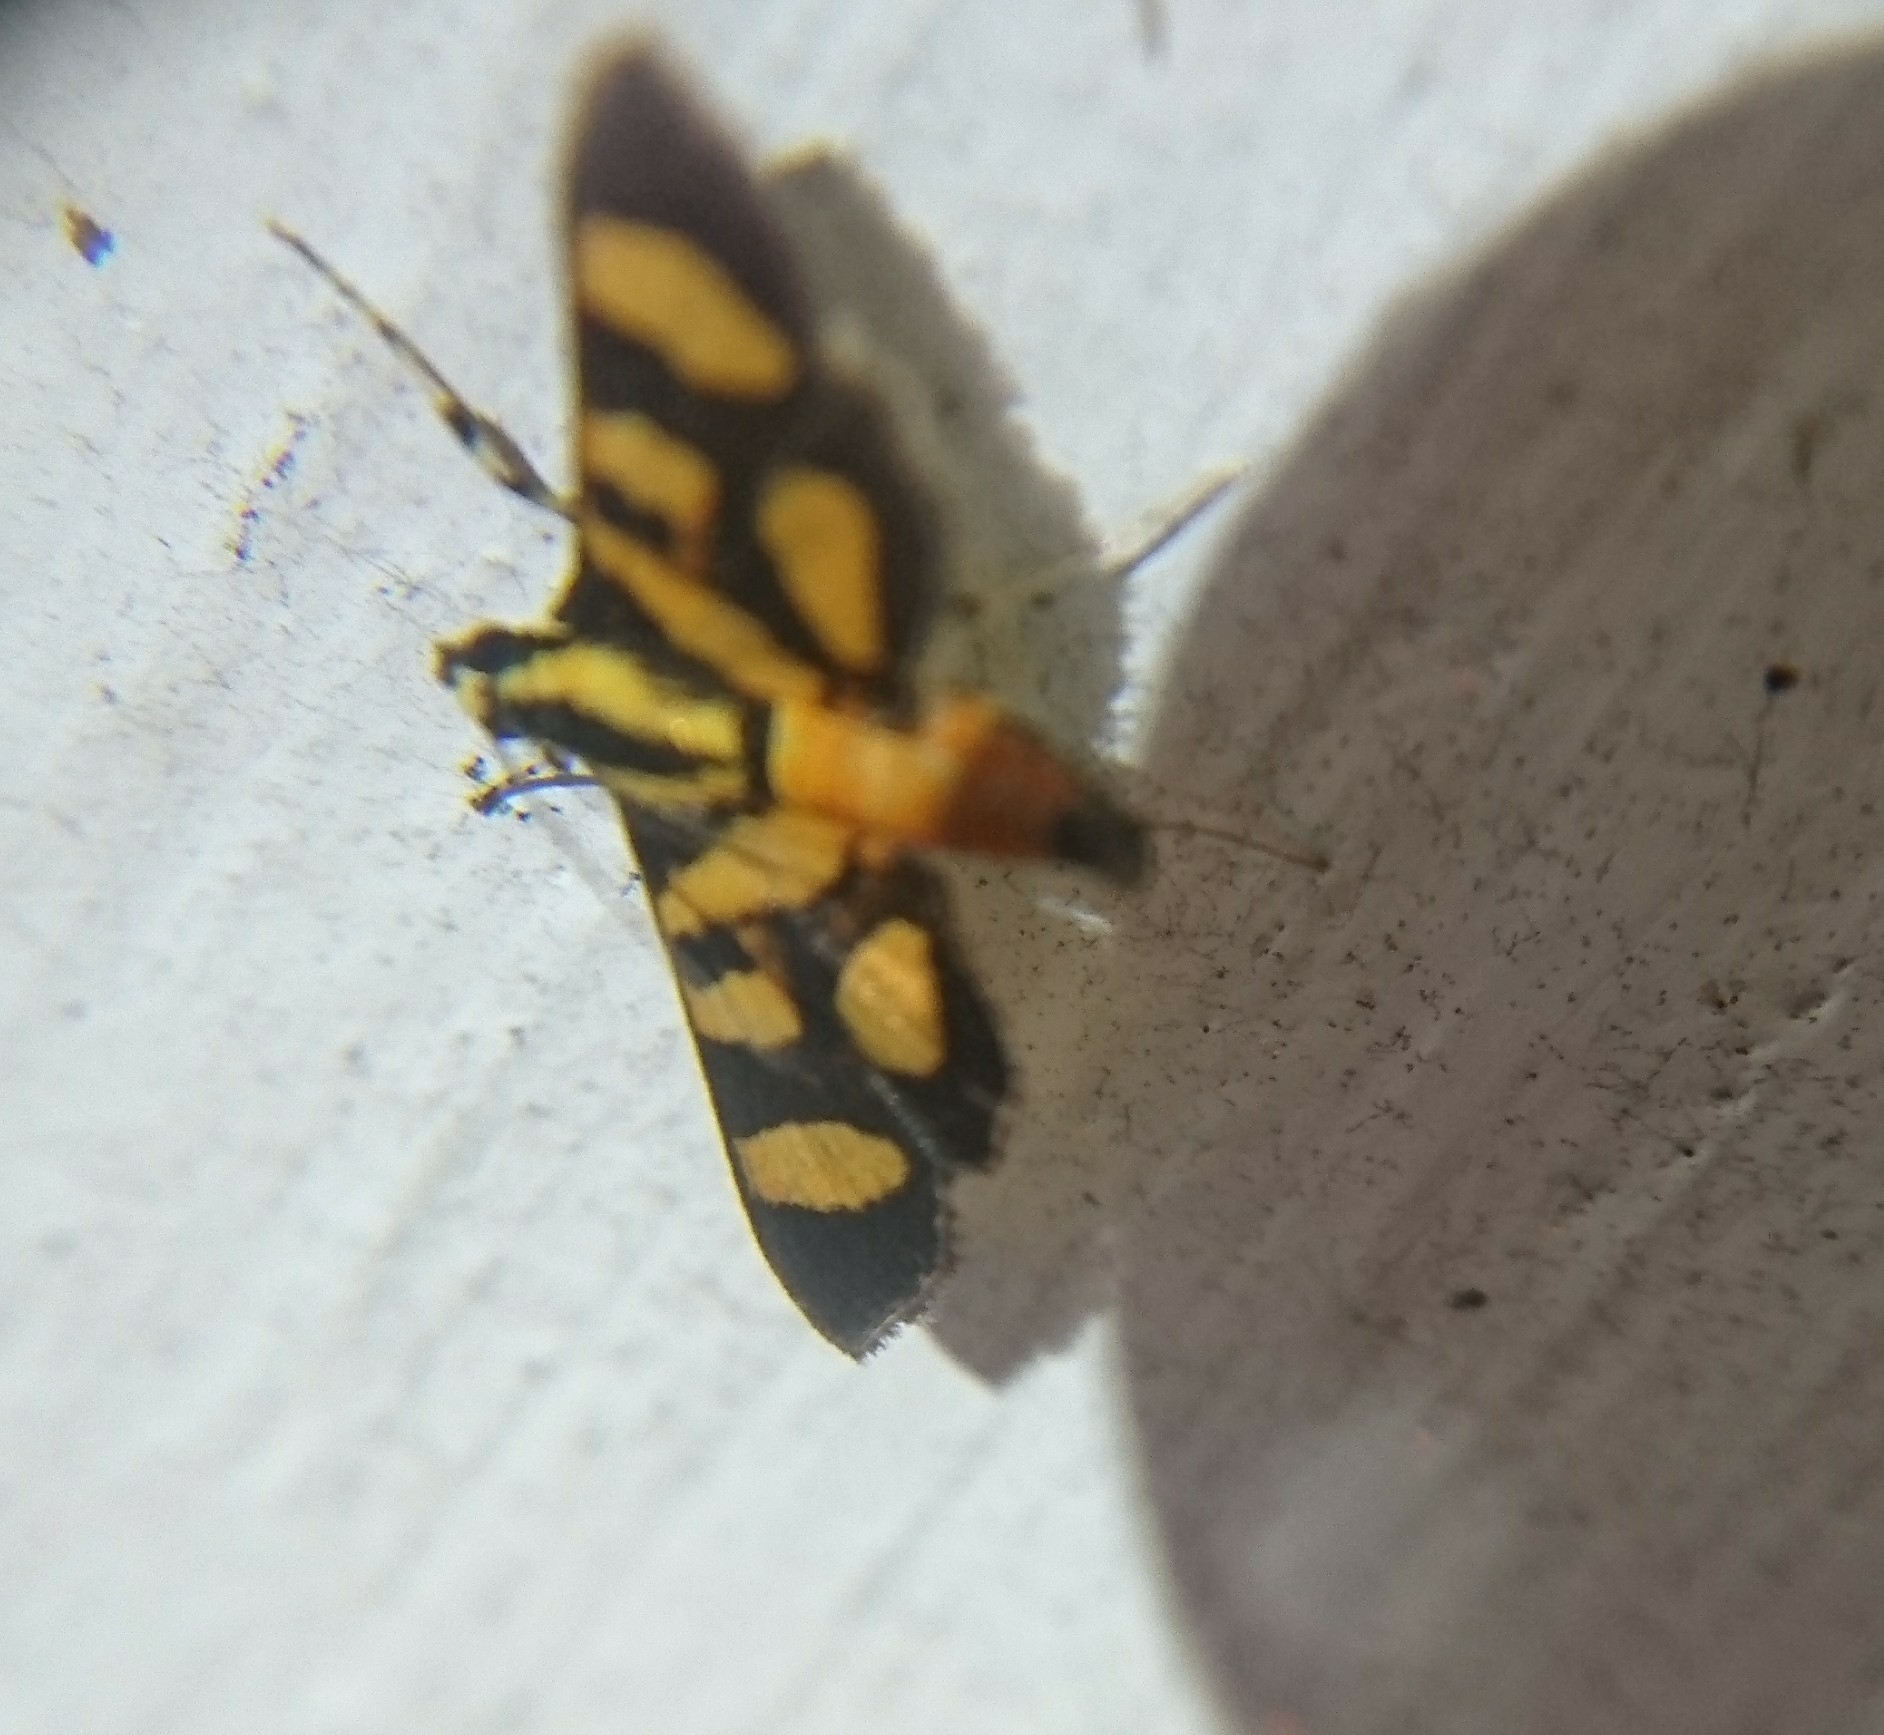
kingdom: Animalia
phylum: Arthropoda
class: Insecta
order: Lepidoptera
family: Crambidae
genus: Syngamia
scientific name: Syngamia florella
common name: Orange-spotted flower moth
